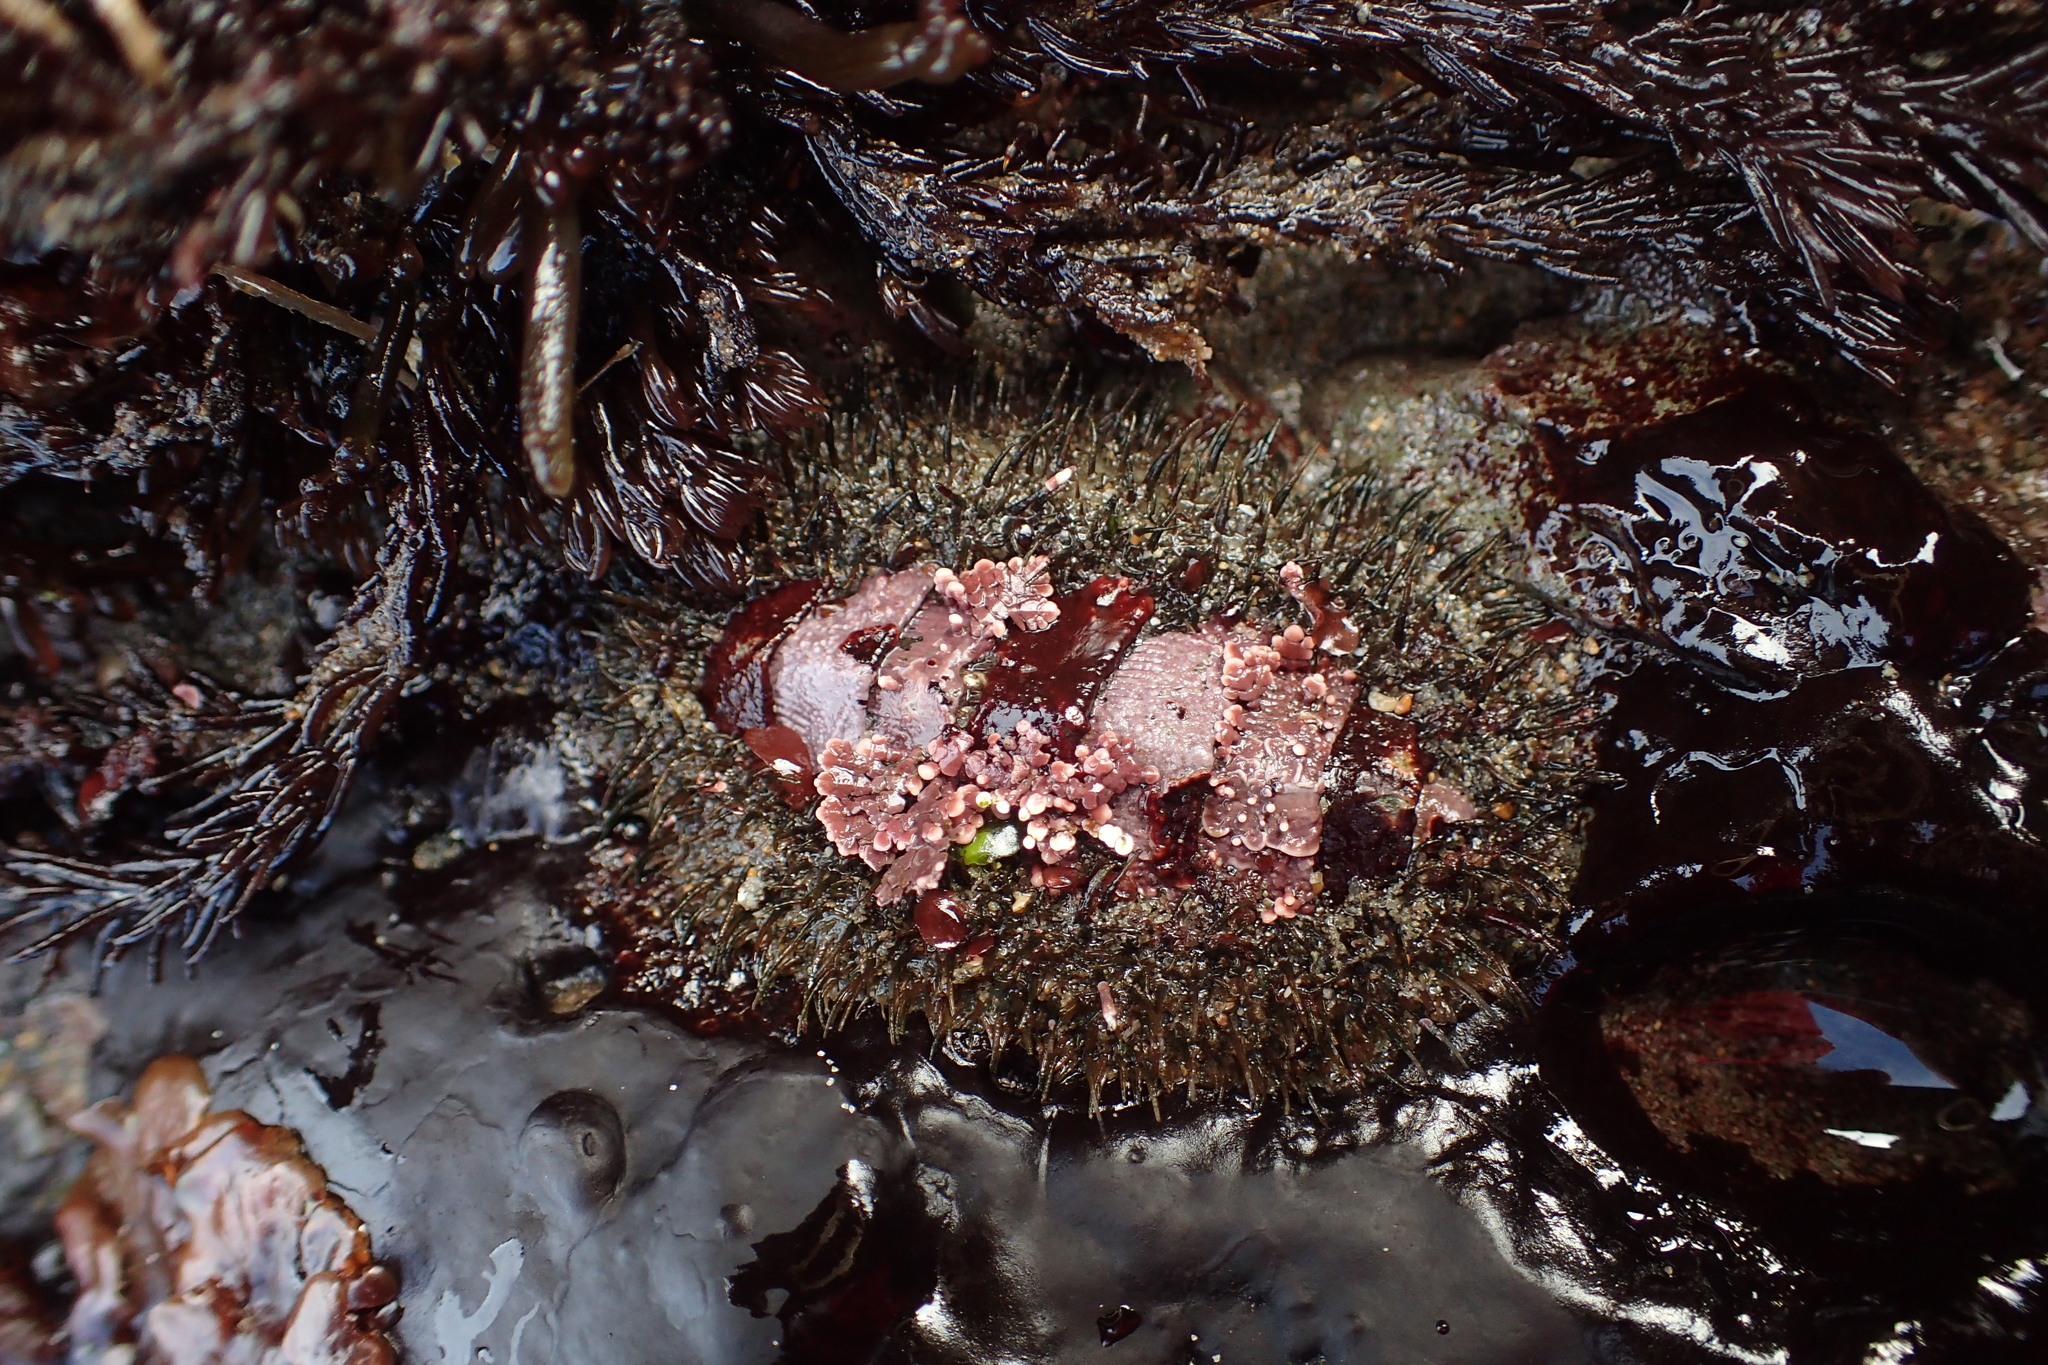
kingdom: Animalia
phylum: Mollusca
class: Polyplacophora
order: Chitonida
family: Mopaliidae
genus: Mopalia
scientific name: Mopalia muscosa
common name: Mossy chiton
